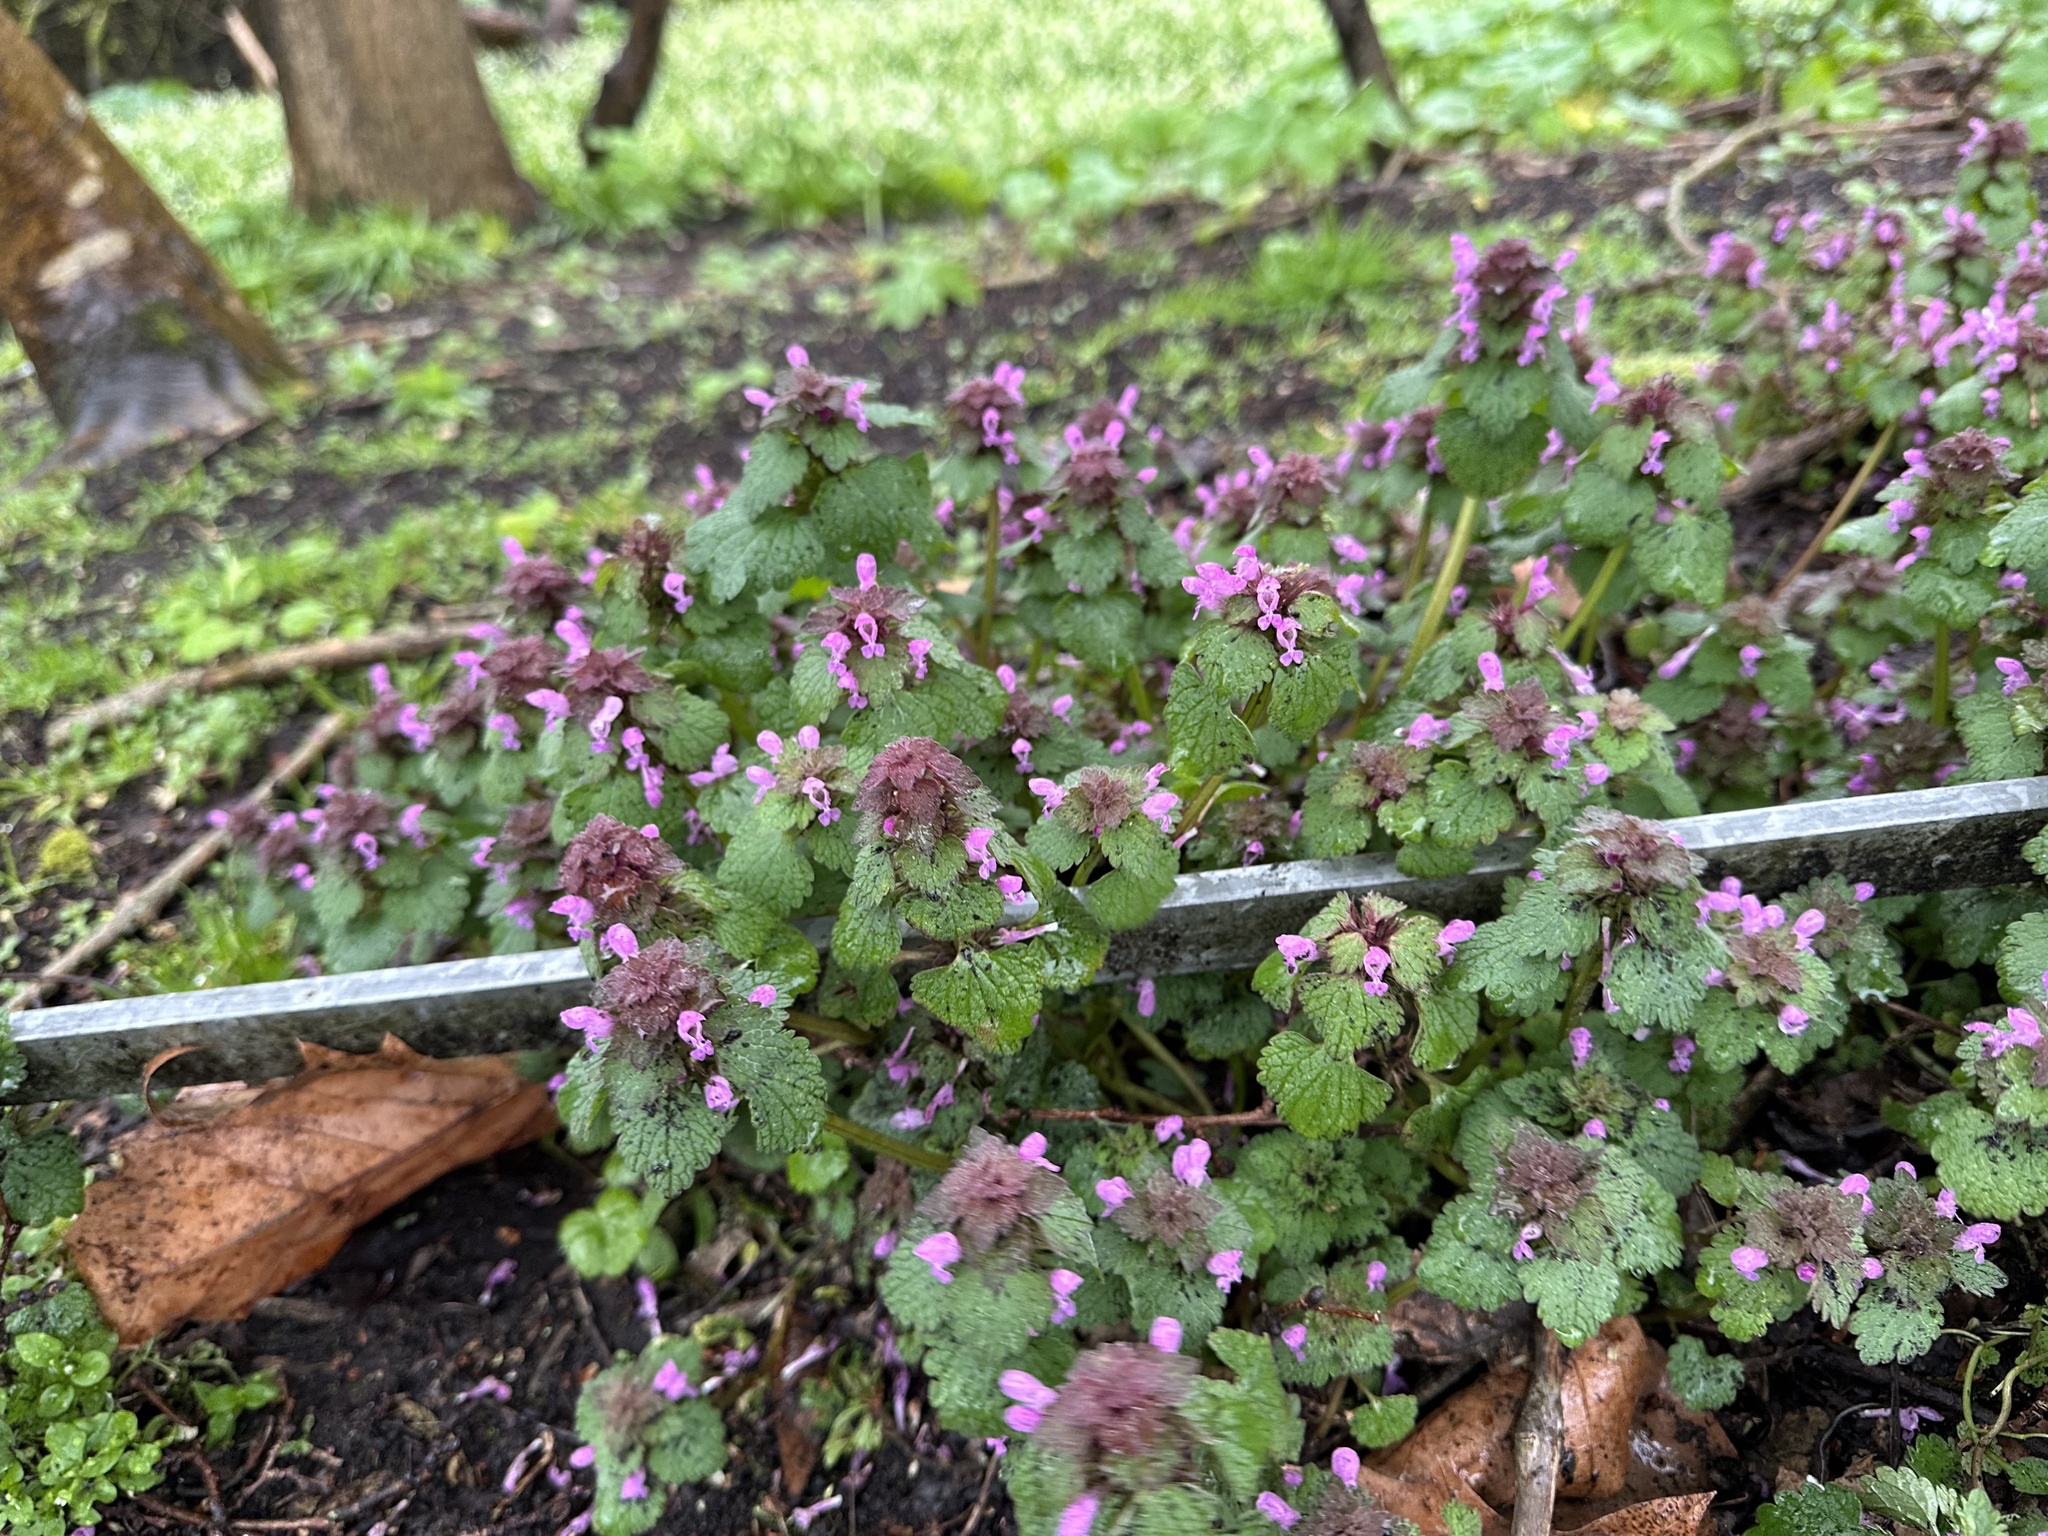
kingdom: Plantae
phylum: Tracheophyta
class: Magnoliopsida
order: Lamiales
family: Lamiaceae
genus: Lamium
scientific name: Lamium purpureum
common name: Red dead-nettle
